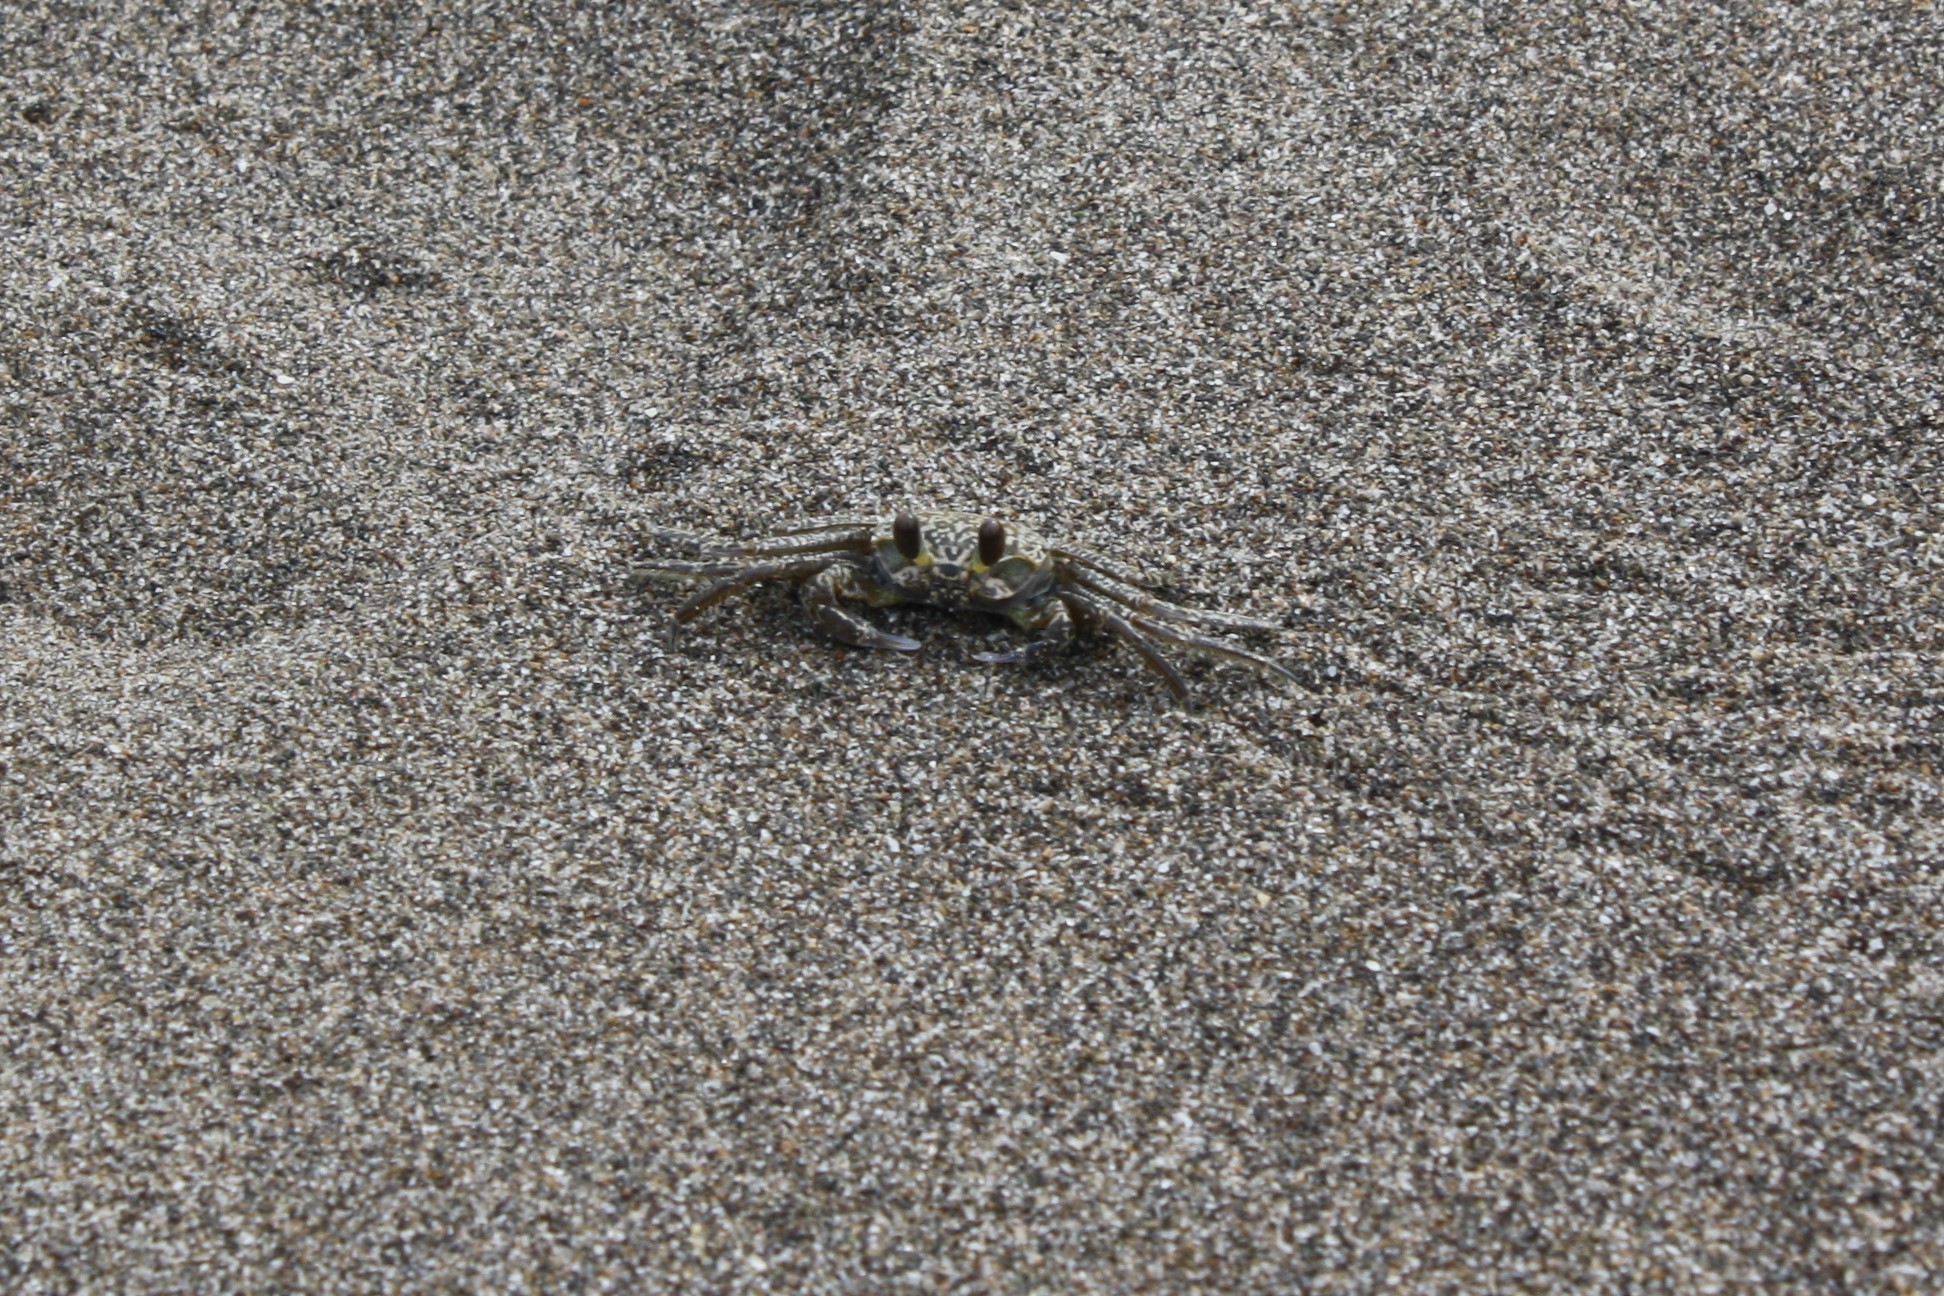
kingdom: Animalia
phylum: Arthropoda
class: Malacostraca
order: Decapoda
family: Ocypodidae
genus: Ocypode
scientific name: Ocypode quadrata
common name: Ghost crab
